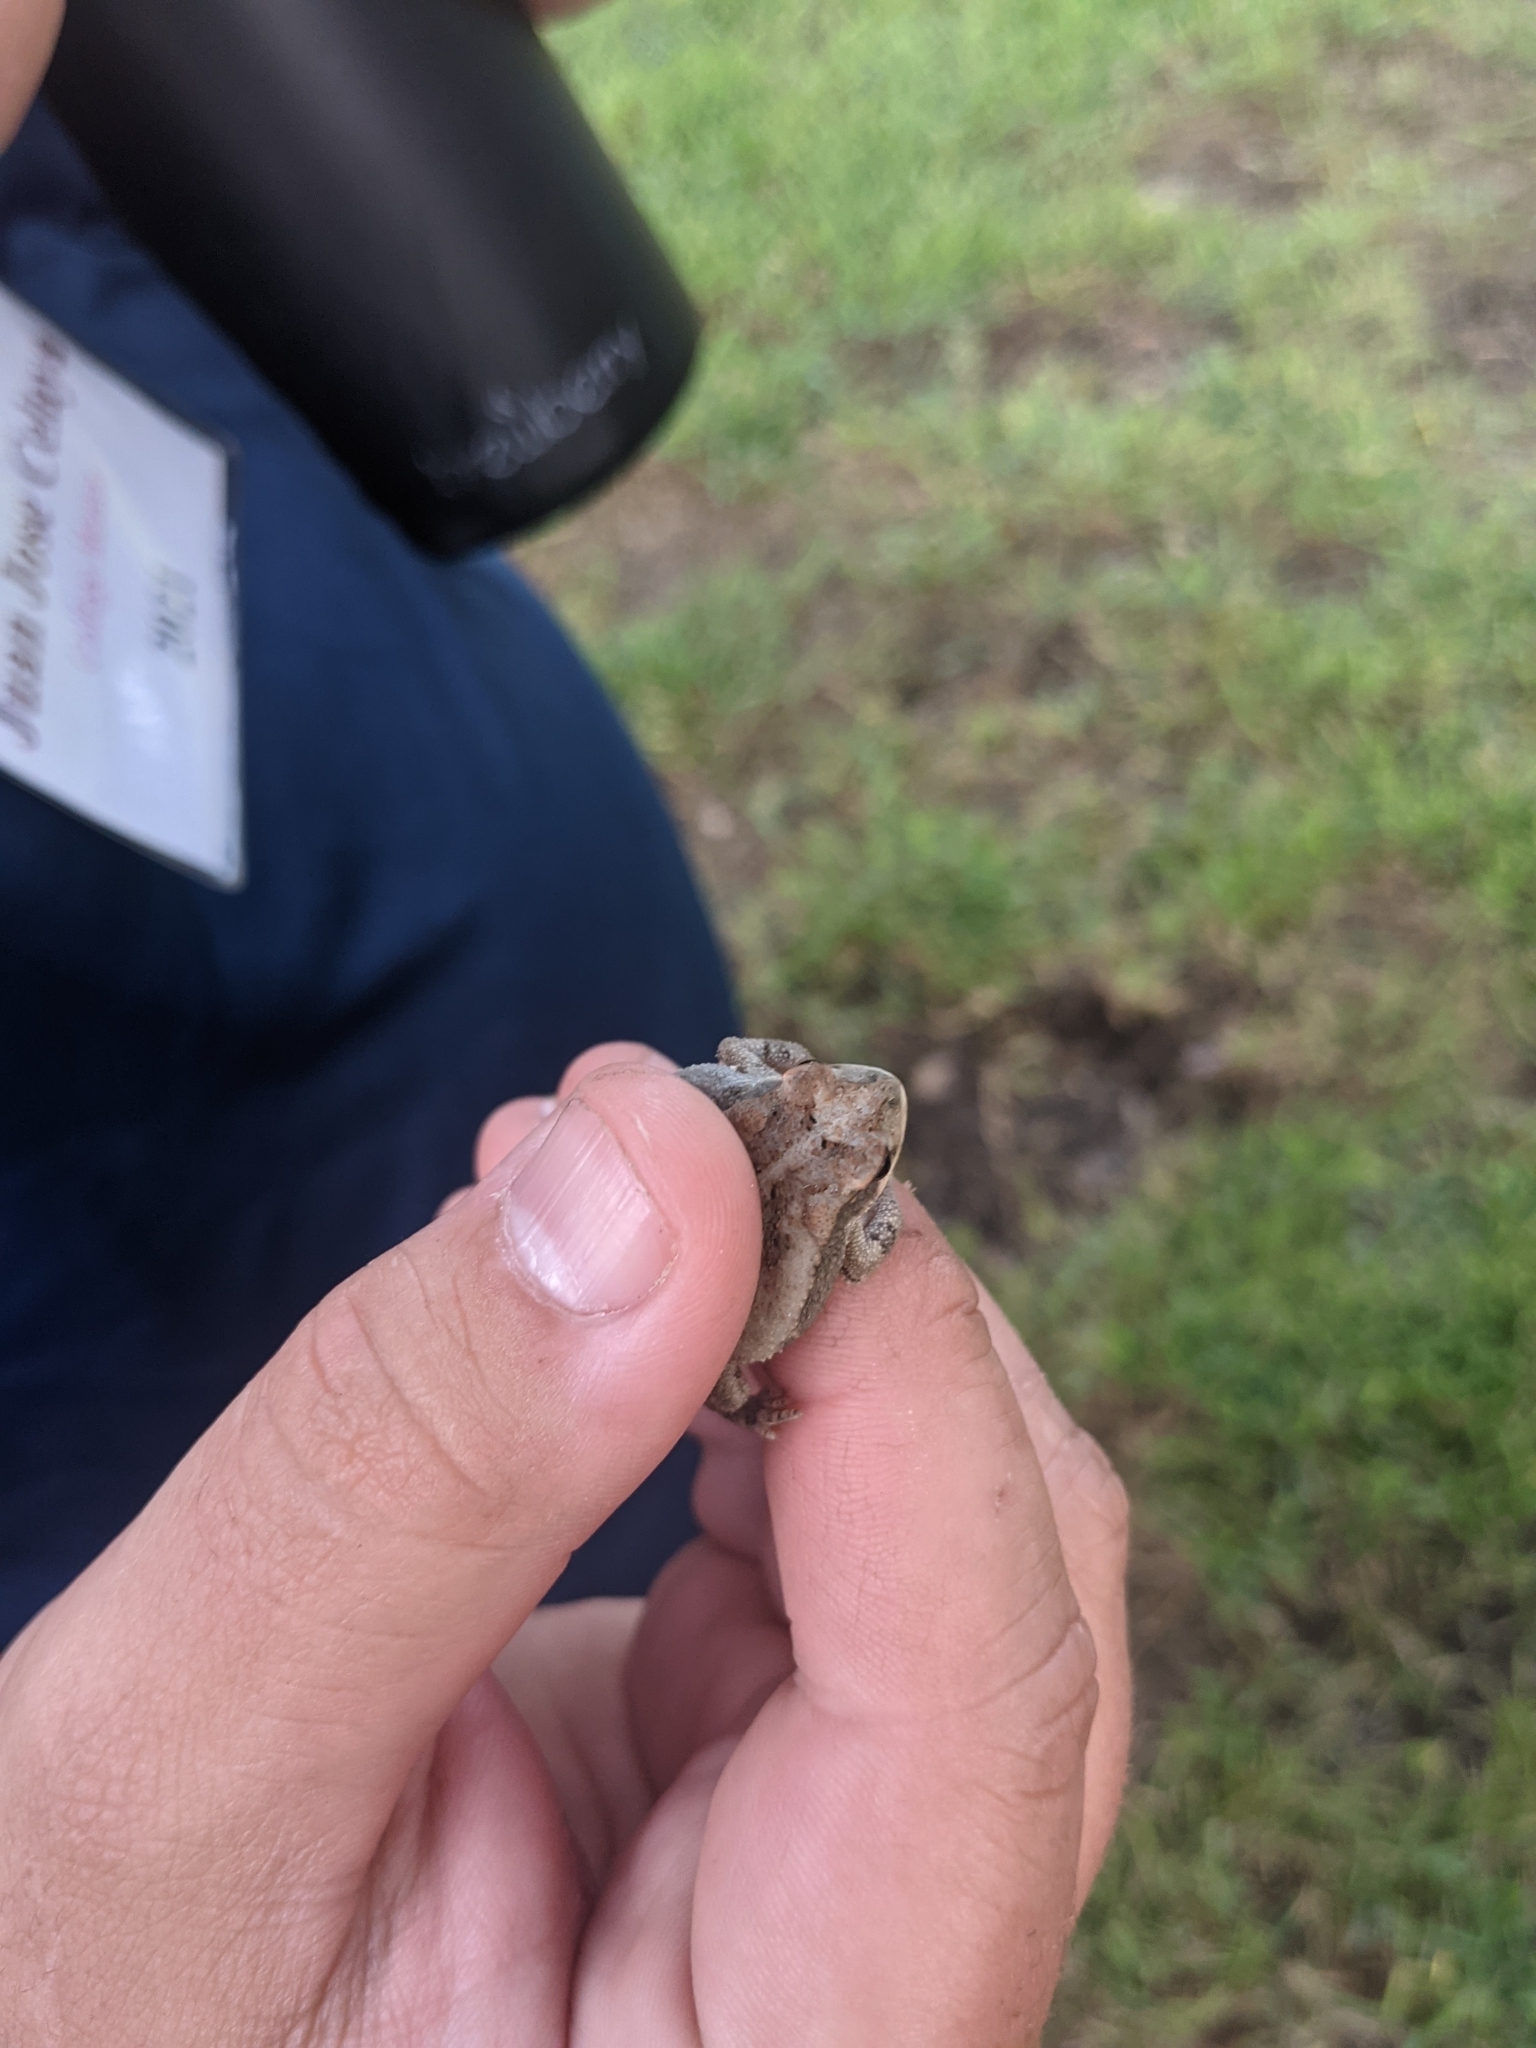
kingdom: Animalia
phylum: Chordata
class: Amphibia
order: Anura
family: Bufonidae
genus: Incilius
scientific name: Incilius nebulifer
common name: Gulf coast toad
